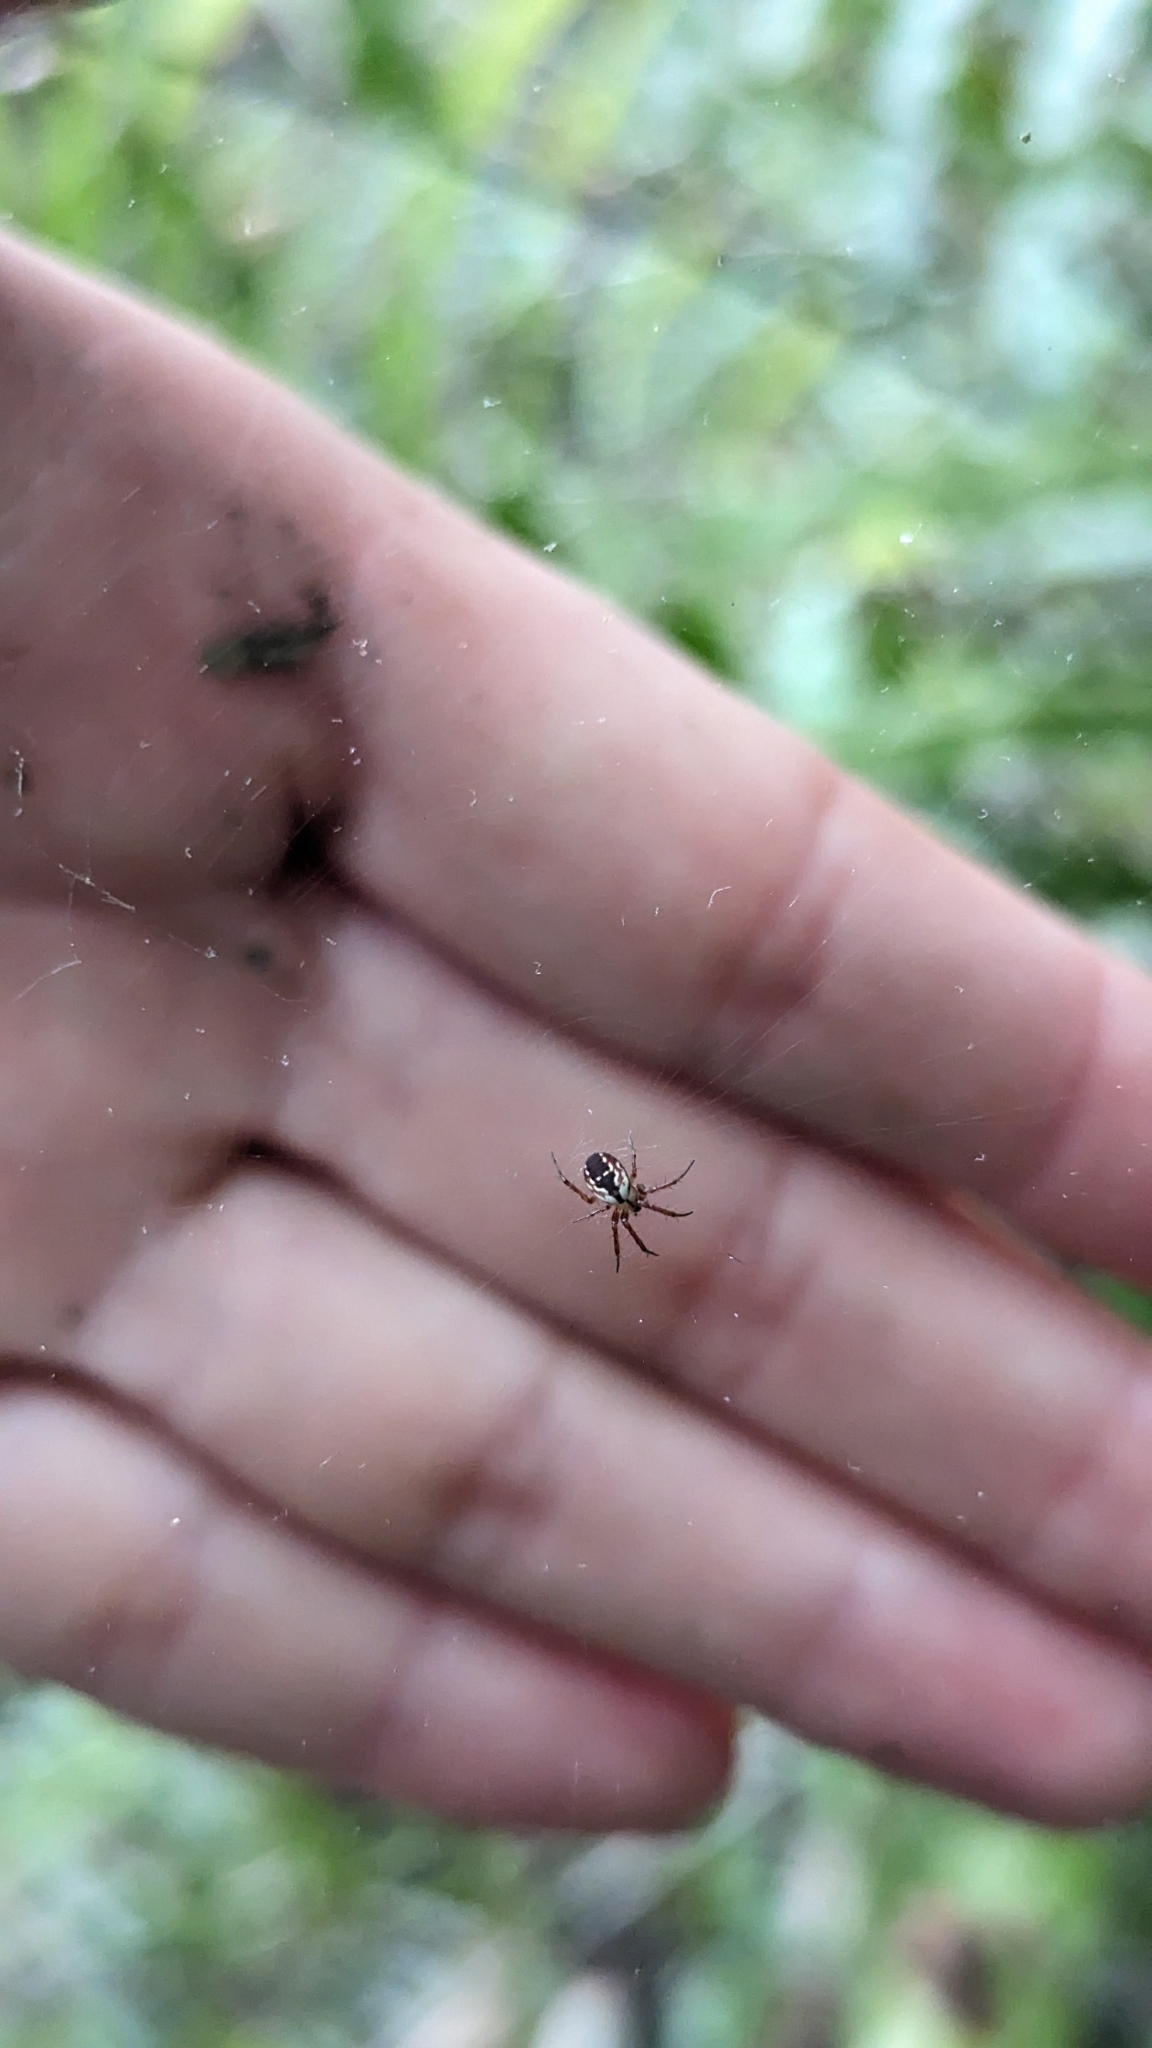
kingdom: Animalia
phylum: Arthropoda
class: Arachnida
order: Araneae
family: Araneidae
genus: Mangora
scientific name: Mangora placida
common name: Tuft-legged orbweaver
